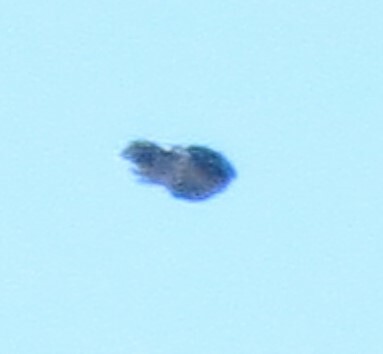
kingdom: Animalia
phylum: Chordata
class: Aves
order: Passeriformes
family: Corvidae
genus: Cyanocitta
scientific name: Cyanocitta cristata
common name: Blue jay
